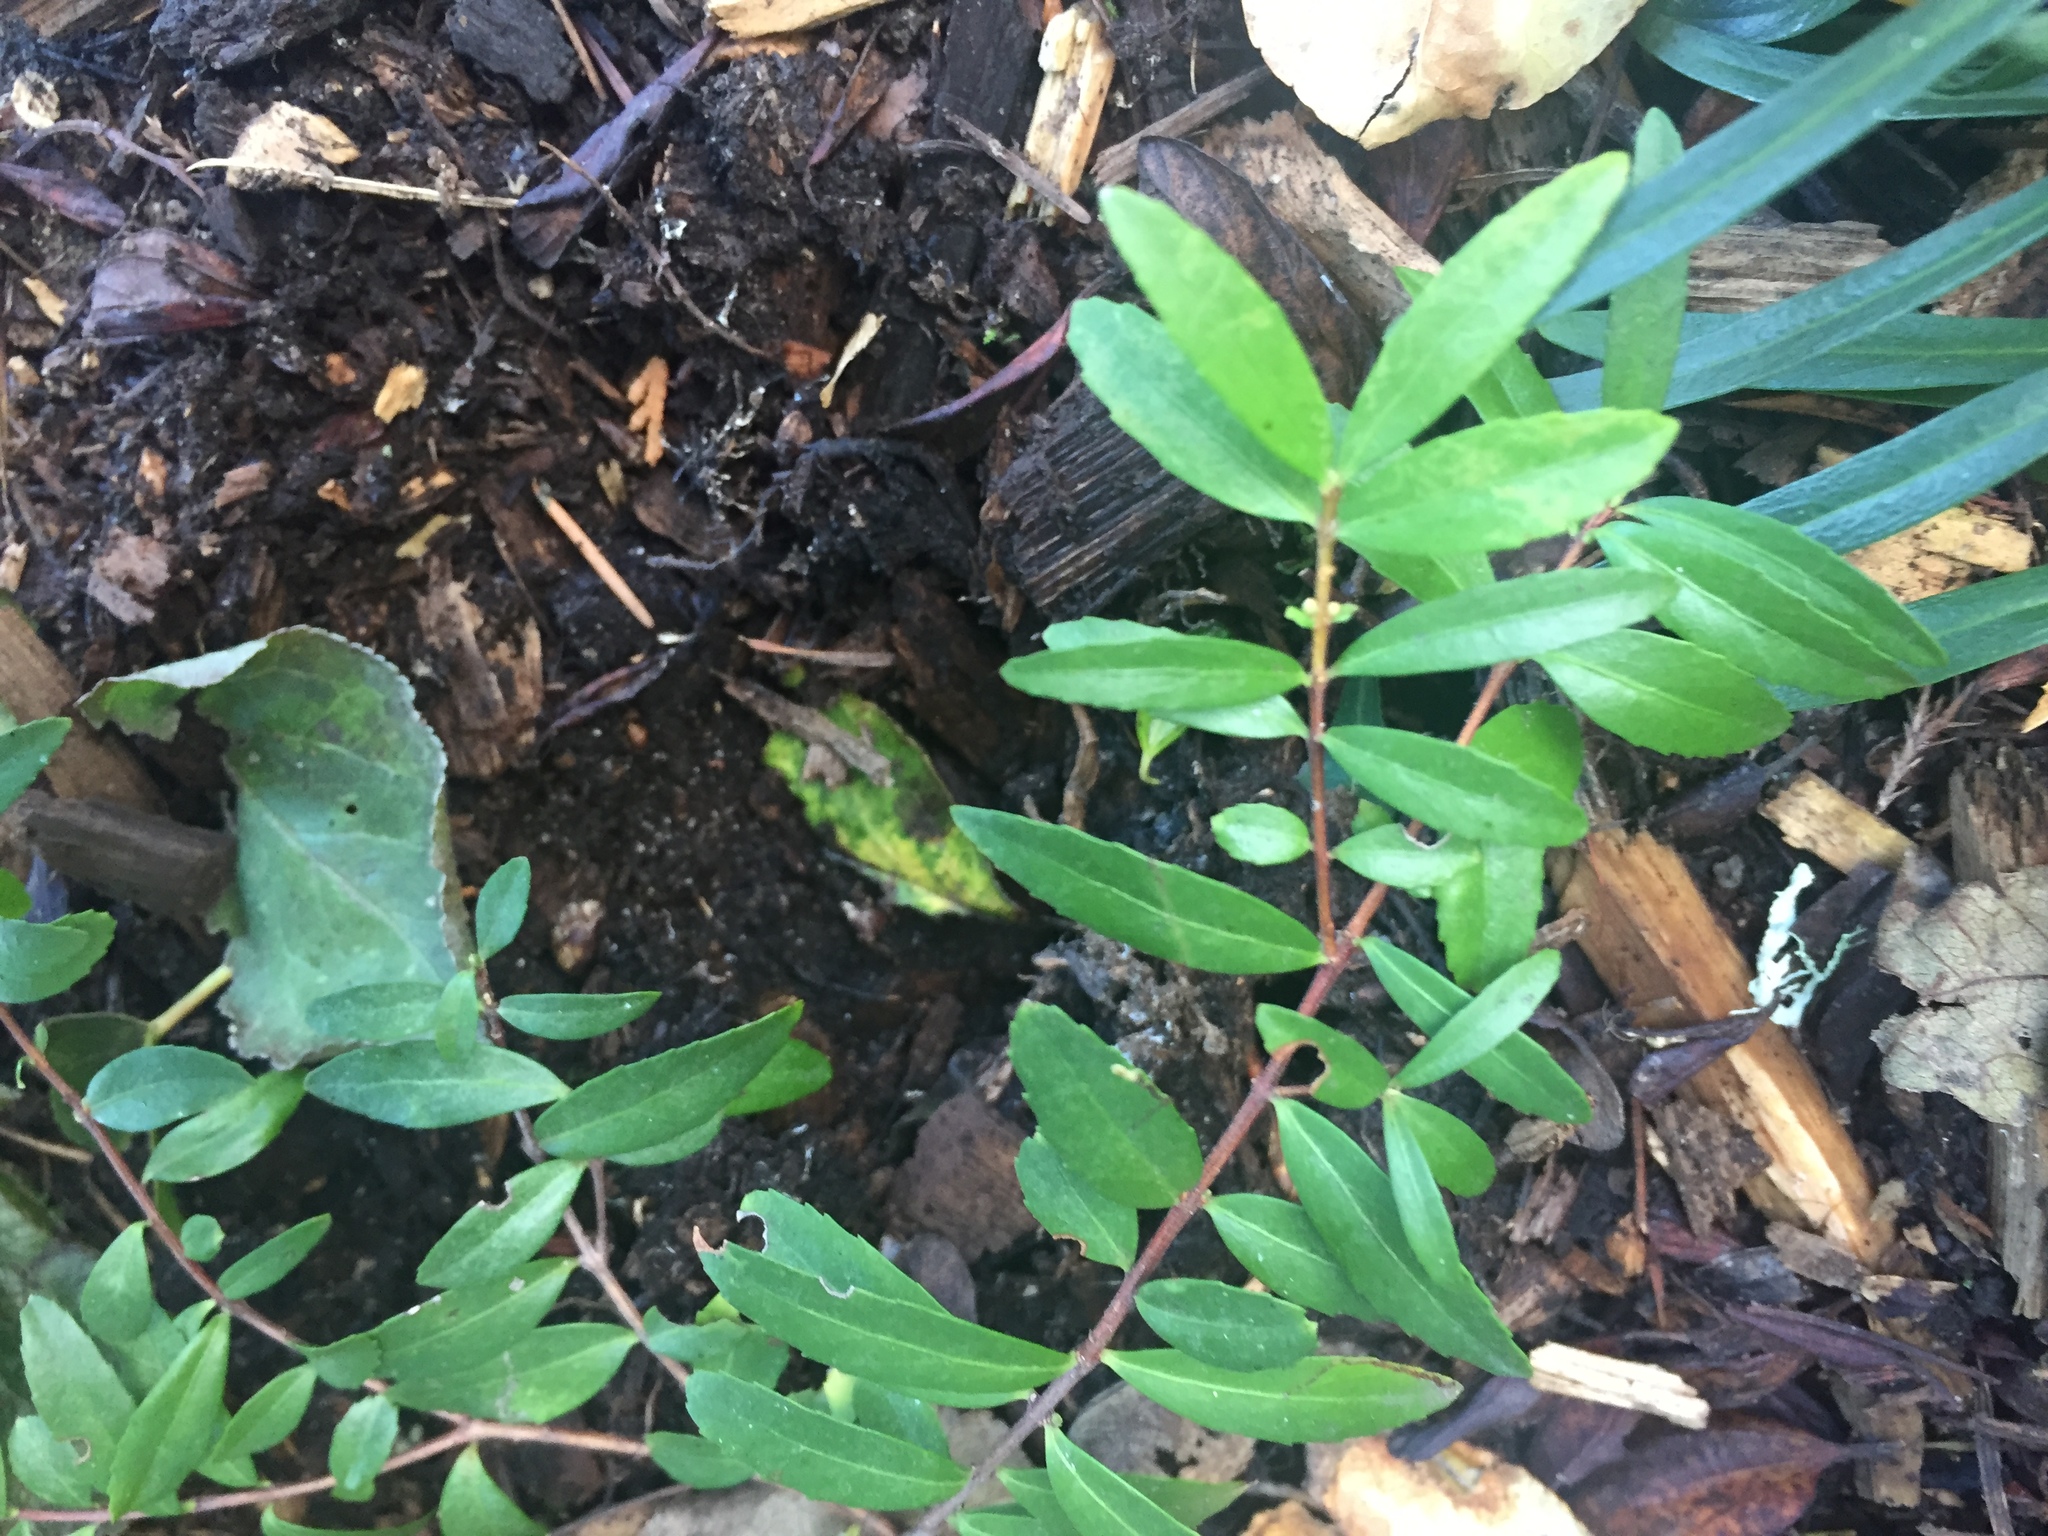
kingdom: Plantae
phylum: Tracheophyta
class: Magnoliopsida
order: Celastrales
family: Celastraceae
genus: Paxistima
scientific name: Paxistima myrsinites
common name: Mountain-lover
